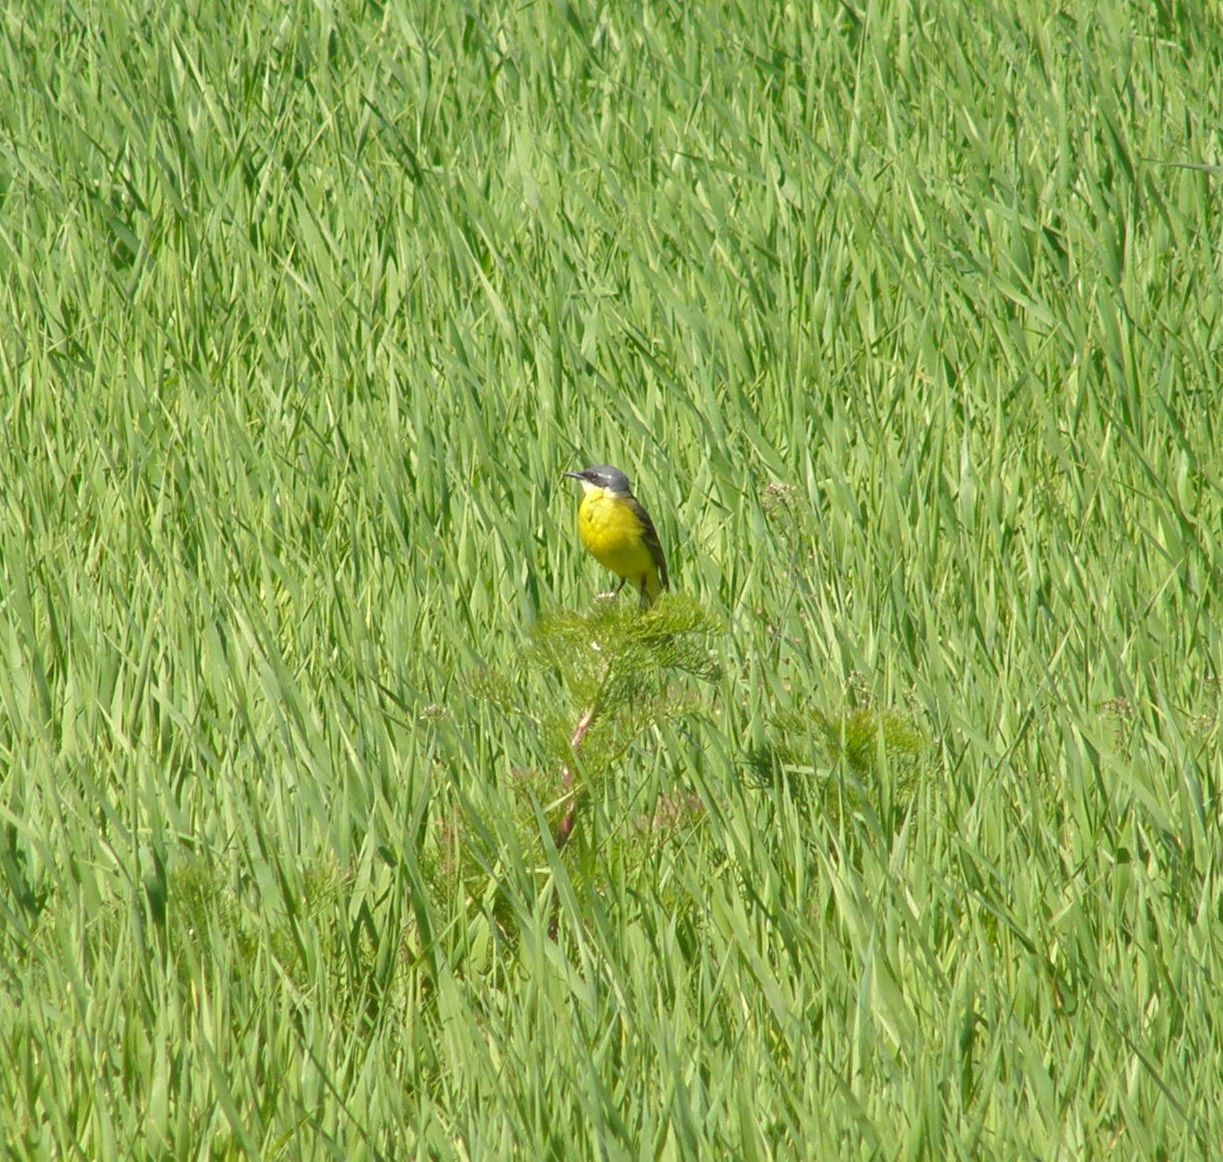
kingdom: Animalia
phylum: Chordata
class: Aves
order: Passeriformes
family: Motacillidae
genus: Motacilla
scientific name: Motacilla flava
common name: Western yellow wagtail
